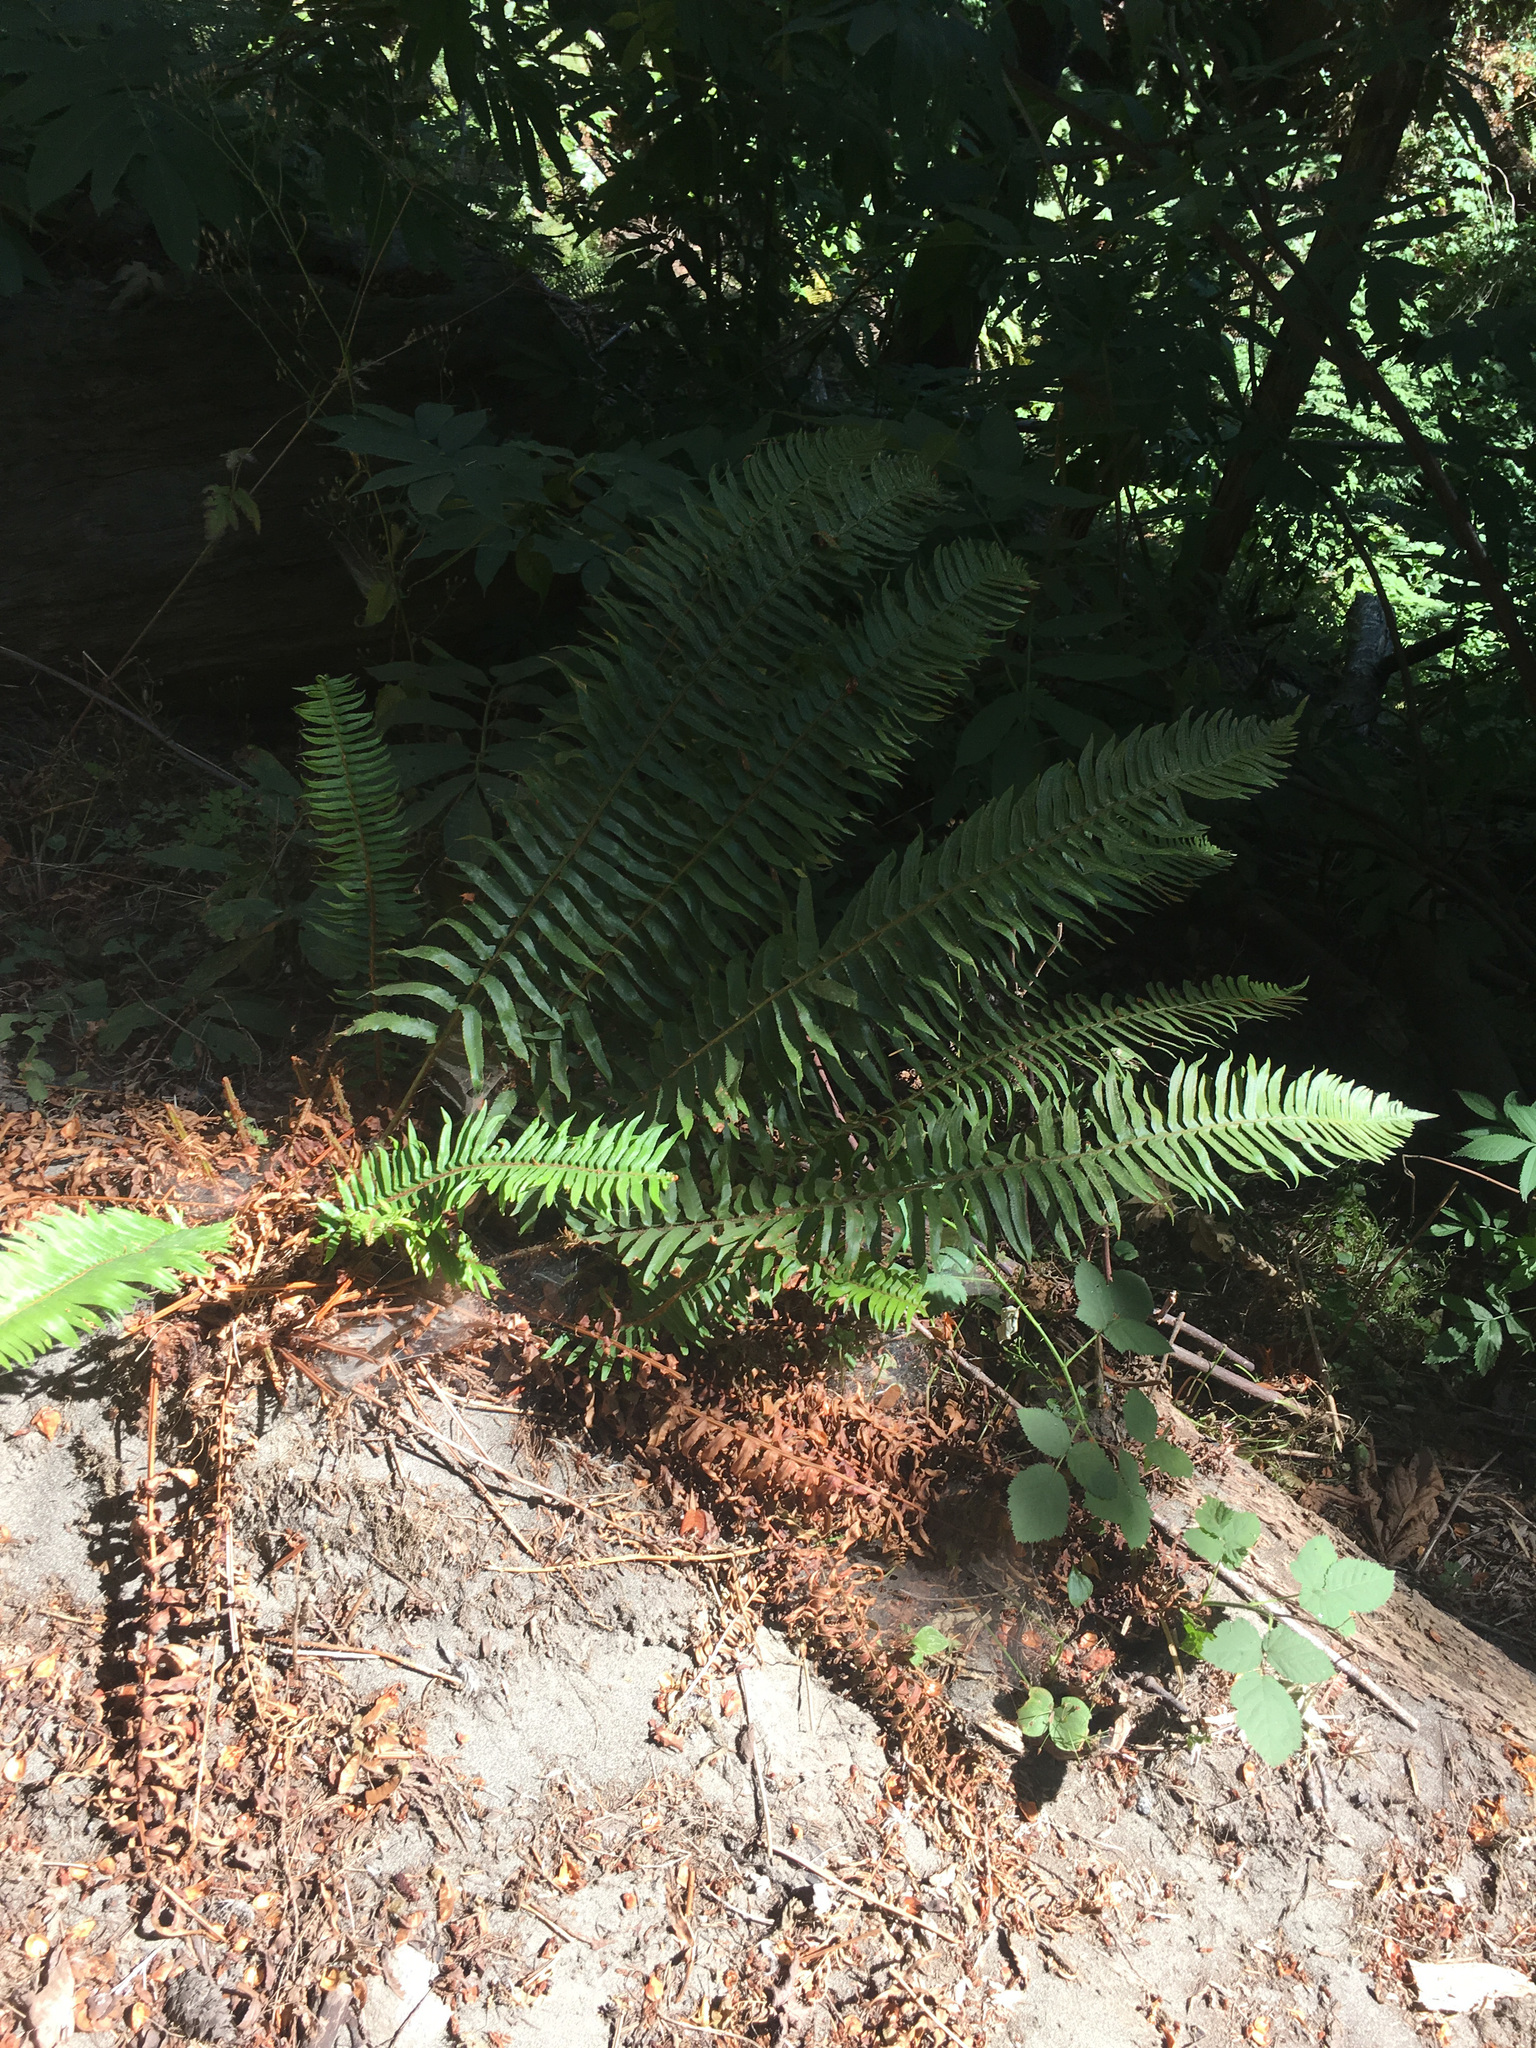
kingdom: Plantae
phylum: Tracheophyta
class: Polypodiopsida
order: Polypodiales
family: Dryopteridaceae
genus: Polystichum
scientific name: Polystichum munitum
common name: Western sword-fern
